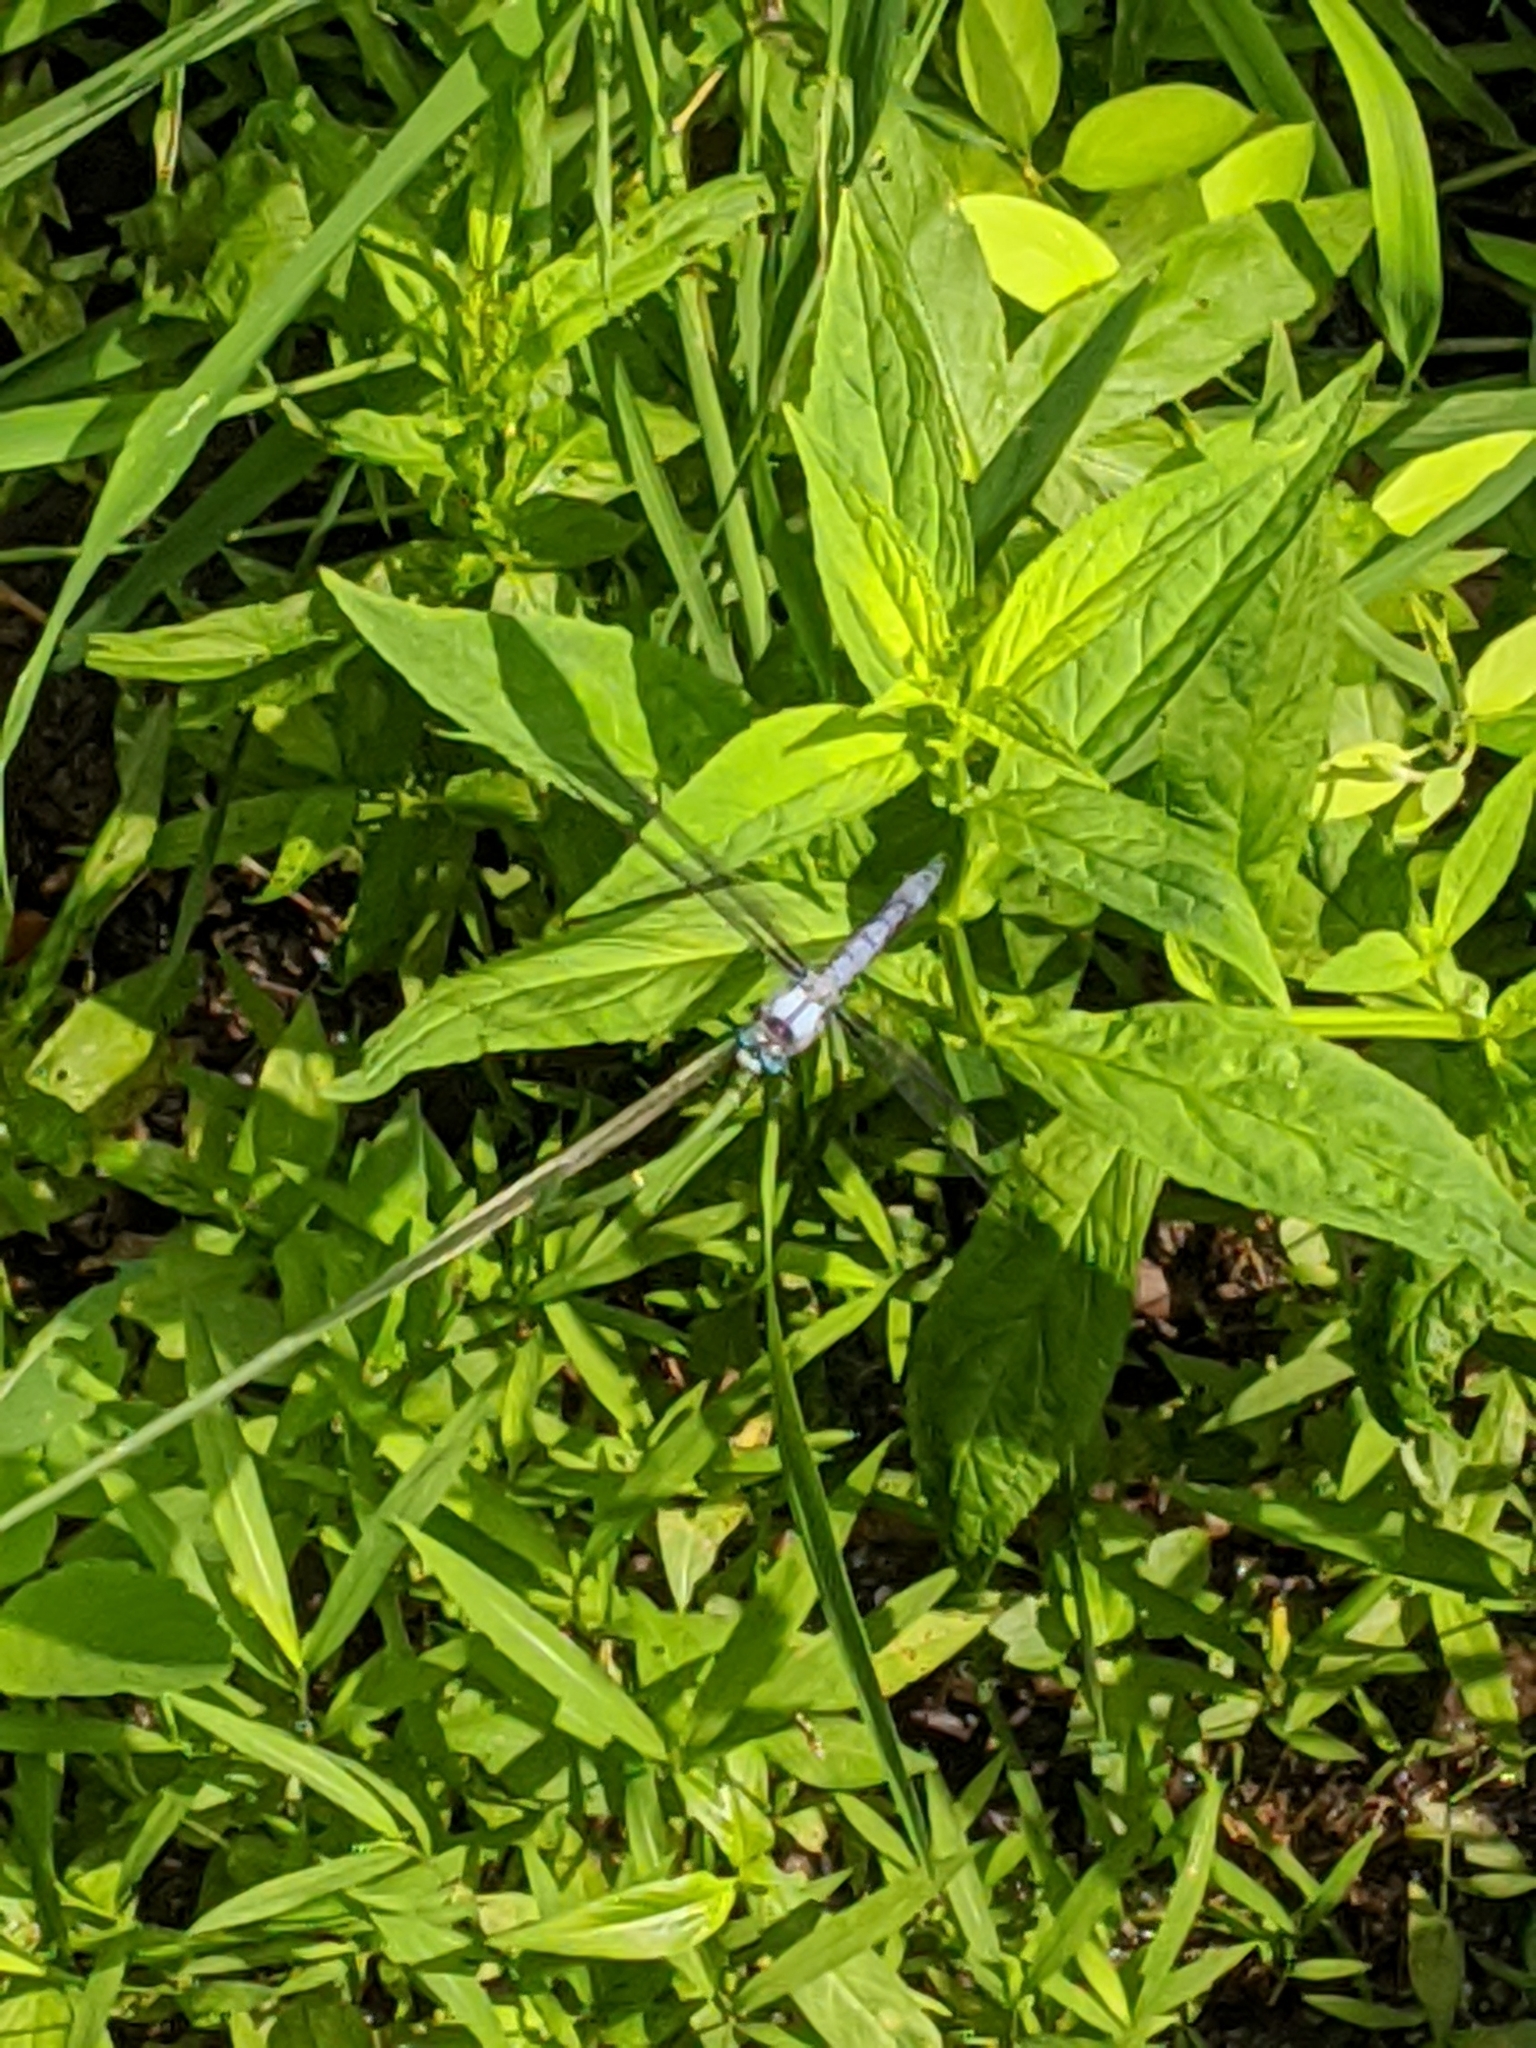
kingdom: Animalia
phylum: Arthropoda
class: Insecta
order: Odonata
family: Libellulidae
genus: Libellula
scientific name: Libellula vibrans
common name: Great blue skimmer
